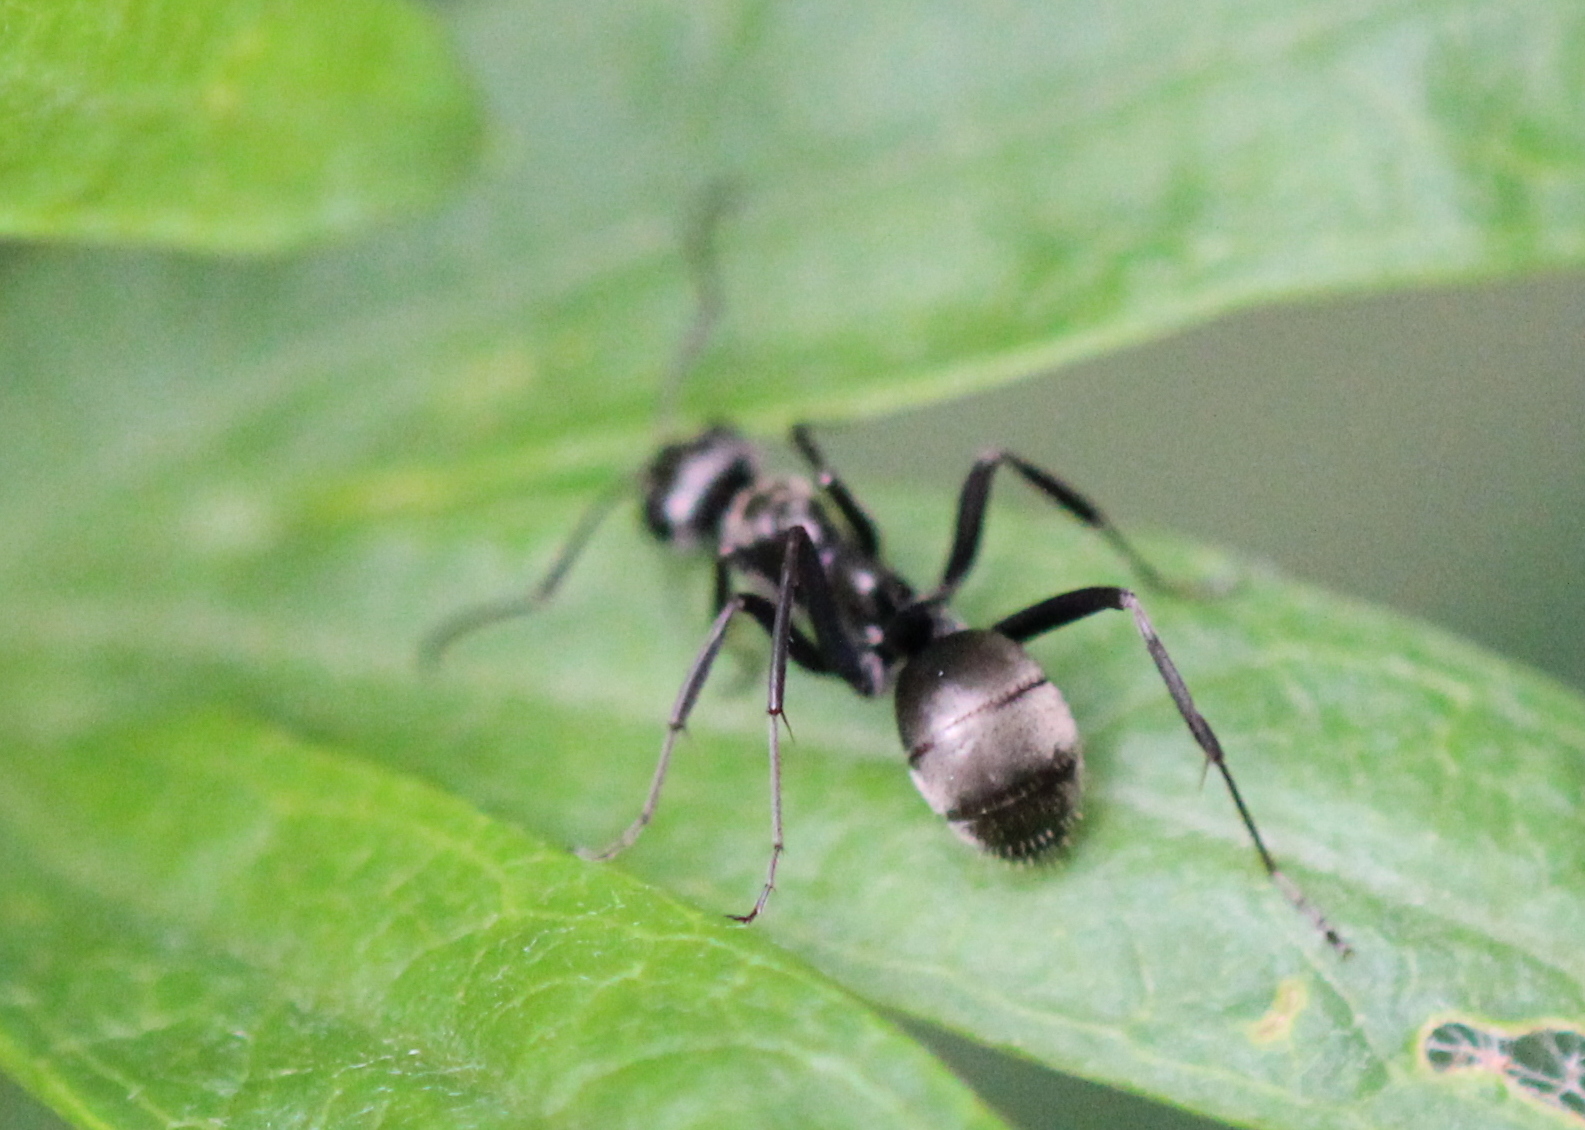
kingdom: Animalia
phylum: Arthropoda
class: Insecta
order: Hymenoptera
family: Formicidae
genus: Formica
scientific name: Formica
